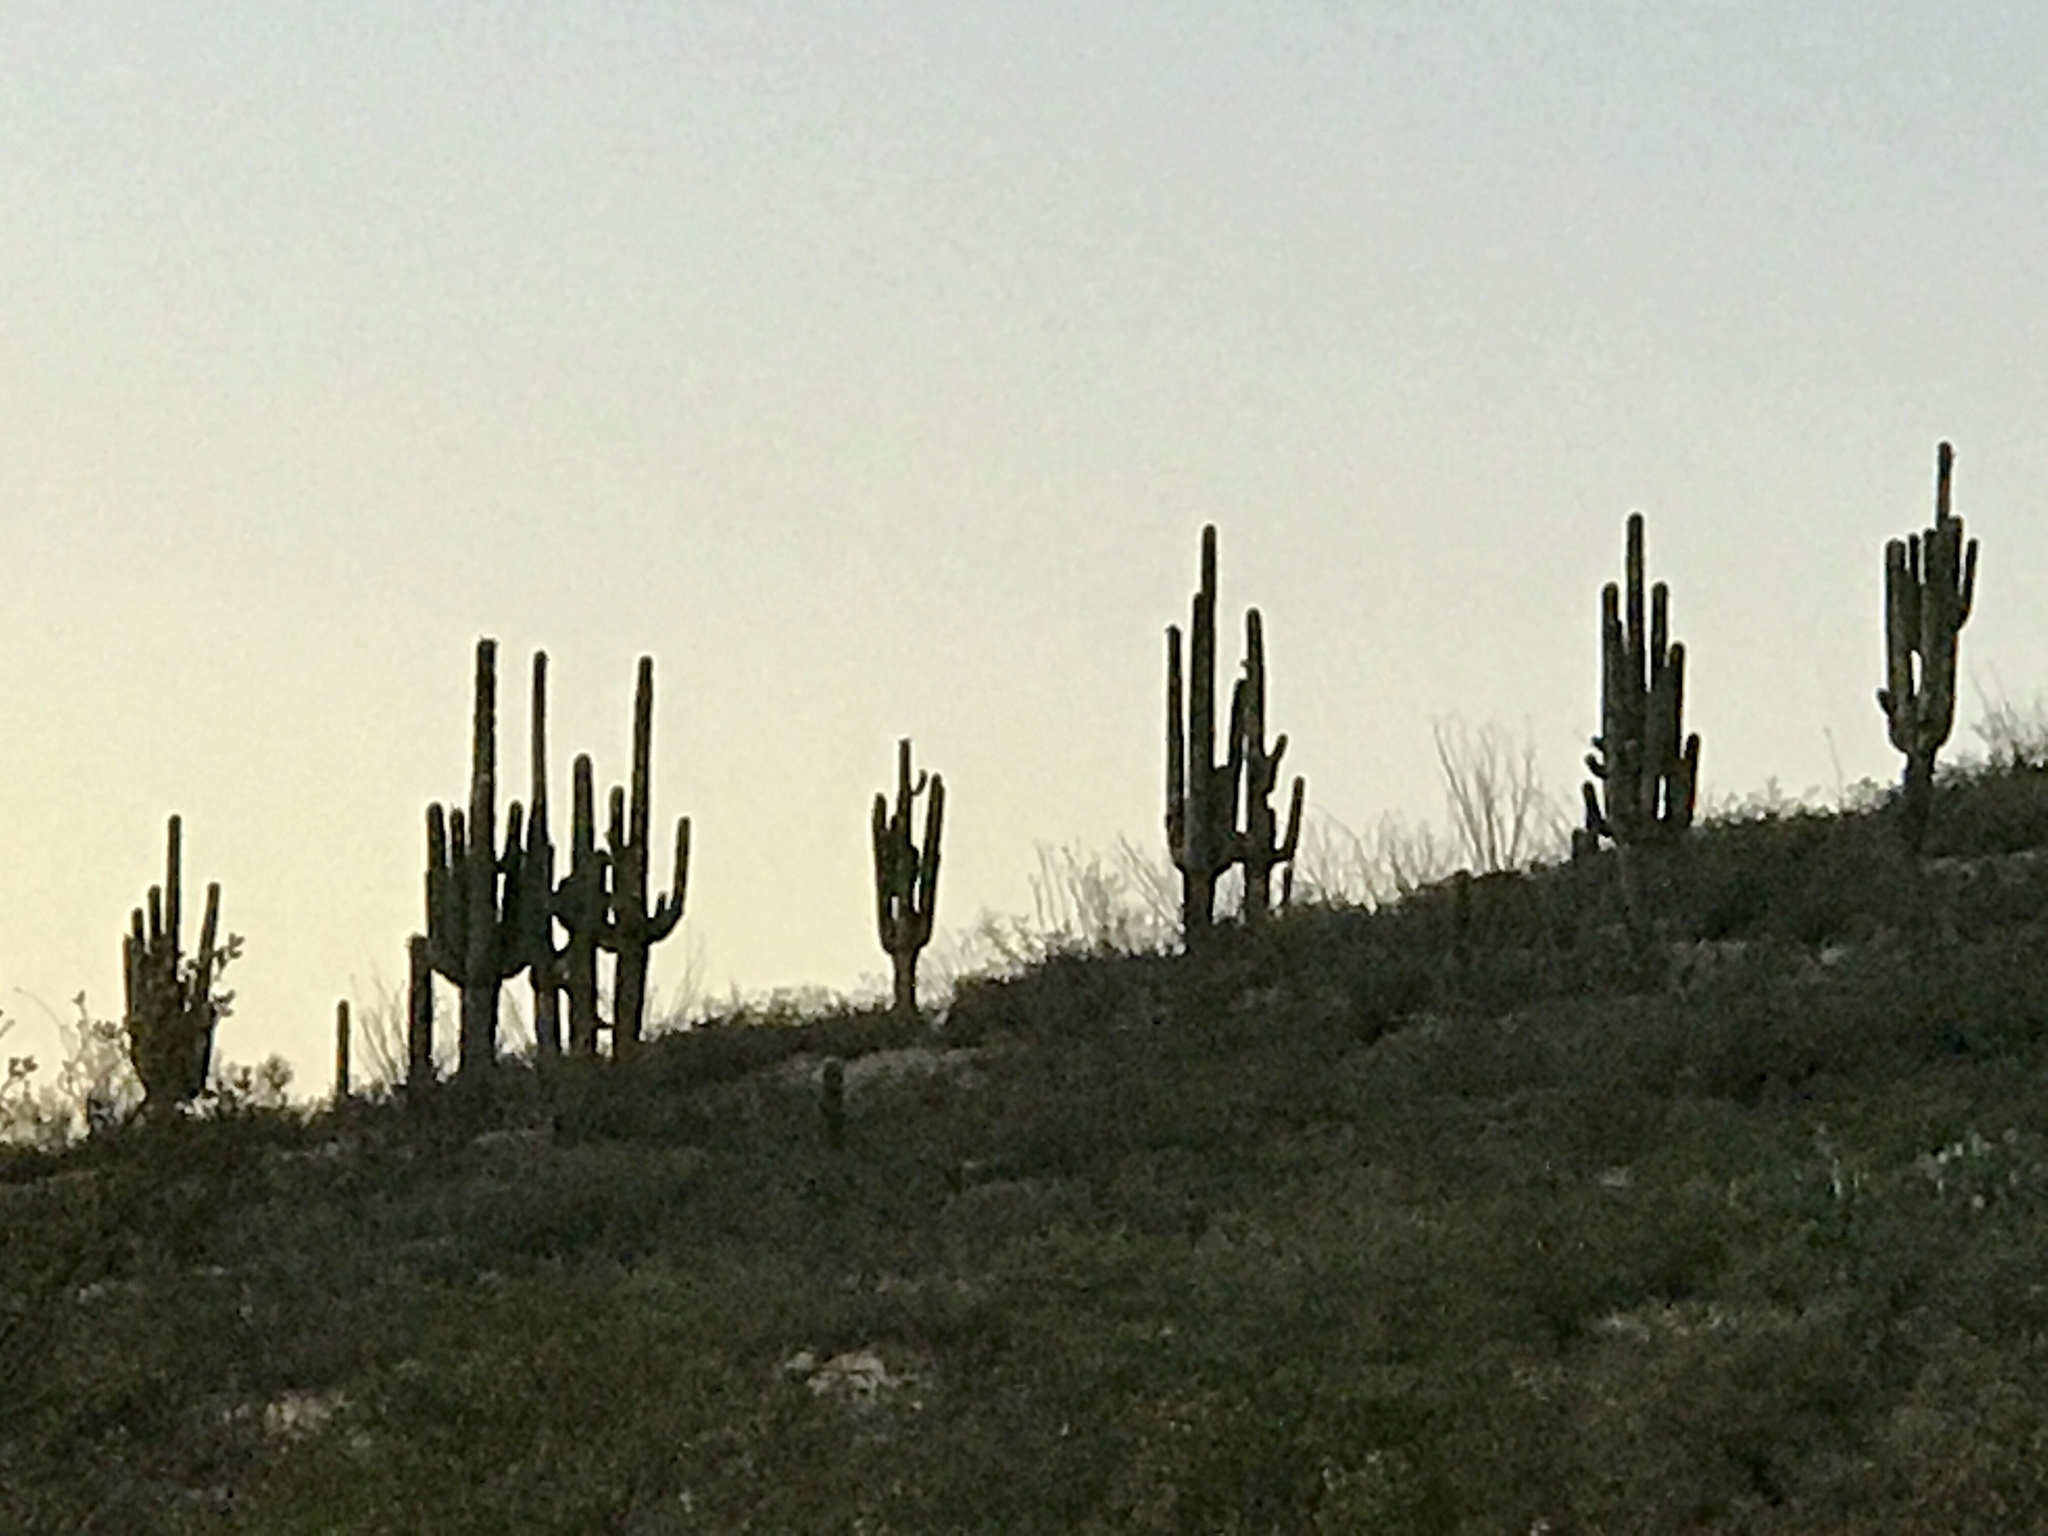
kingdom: Plantae
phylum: Tracheophyta
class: Magnoliopsida
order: Caryophyllales
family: Cactaceae
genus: Carnegiea
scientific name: Carnegiea gigantea
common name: Saguaro
